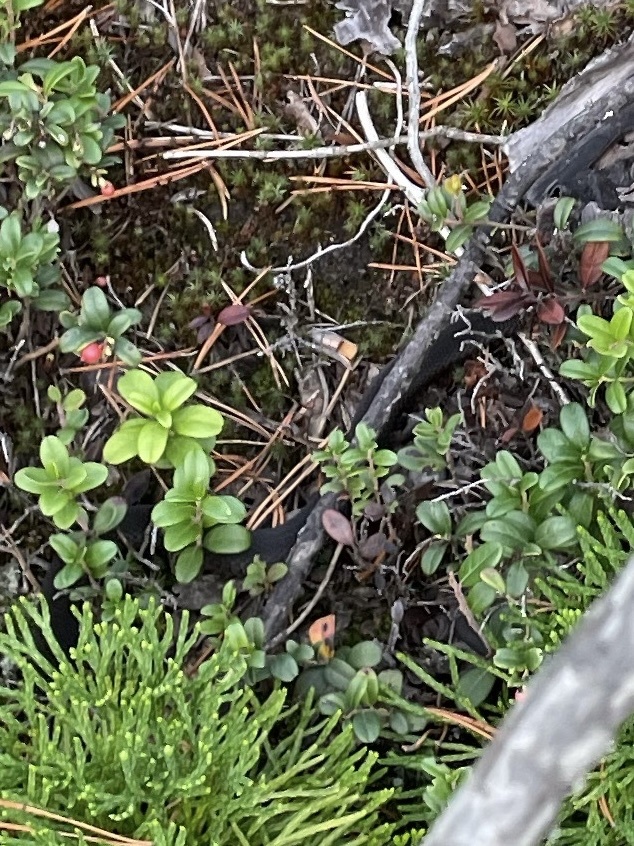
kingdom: Animalia
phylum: Chordata
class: Squamata
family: Viperidae
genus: Vipera
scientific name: Vipera berus
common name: Adder
